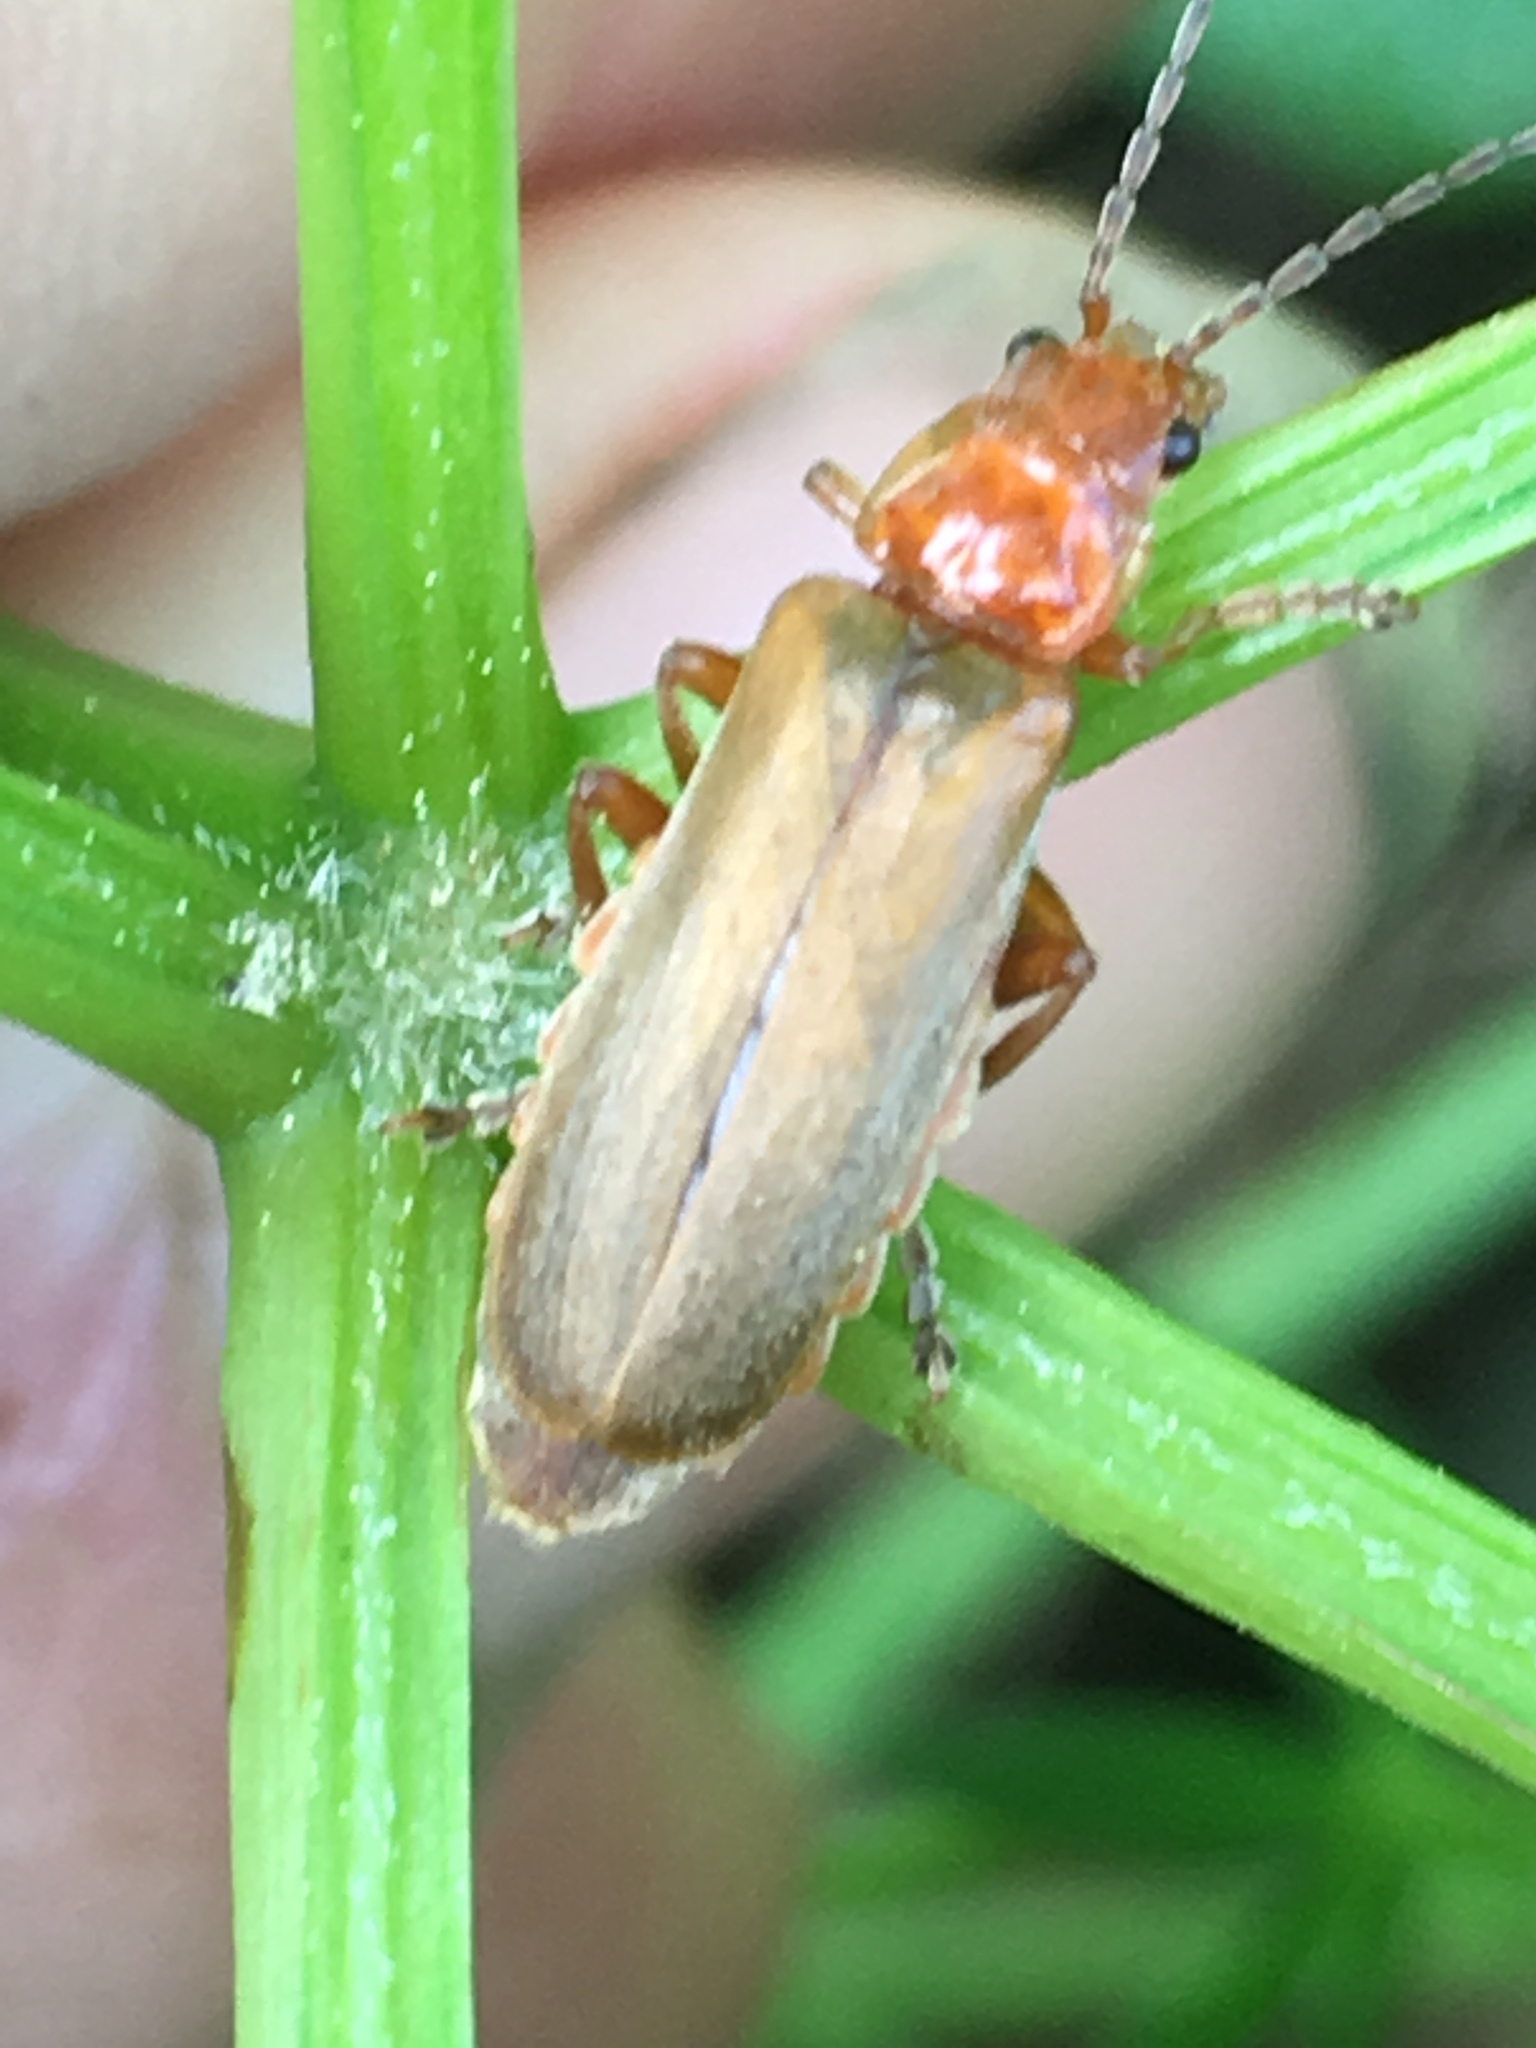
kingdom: Animalia
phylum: Arthropoda
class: Insecta
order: Coleoptera
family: Cantharidae
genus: Cantharis
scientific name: Cantharis rufa
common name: Red-spotted soldier beetle
